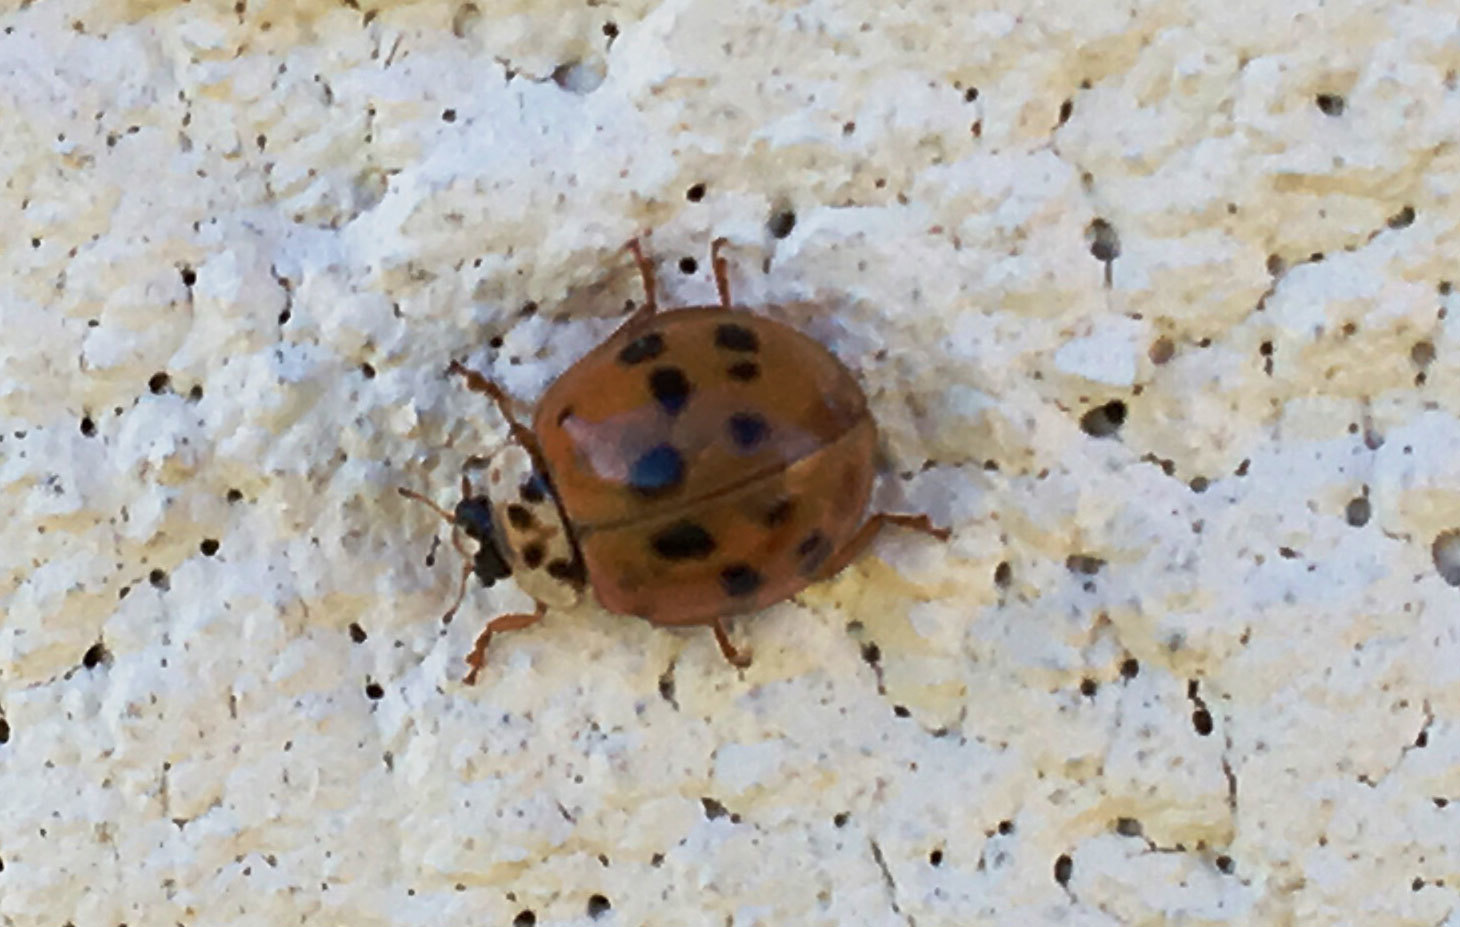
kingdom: Animalia
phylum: Arthropoda
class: Insecta
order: Coleoptera
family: Coccinellidae
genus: Harmonia
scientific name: Harmonia axyridis
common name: Harlequin ladybird
